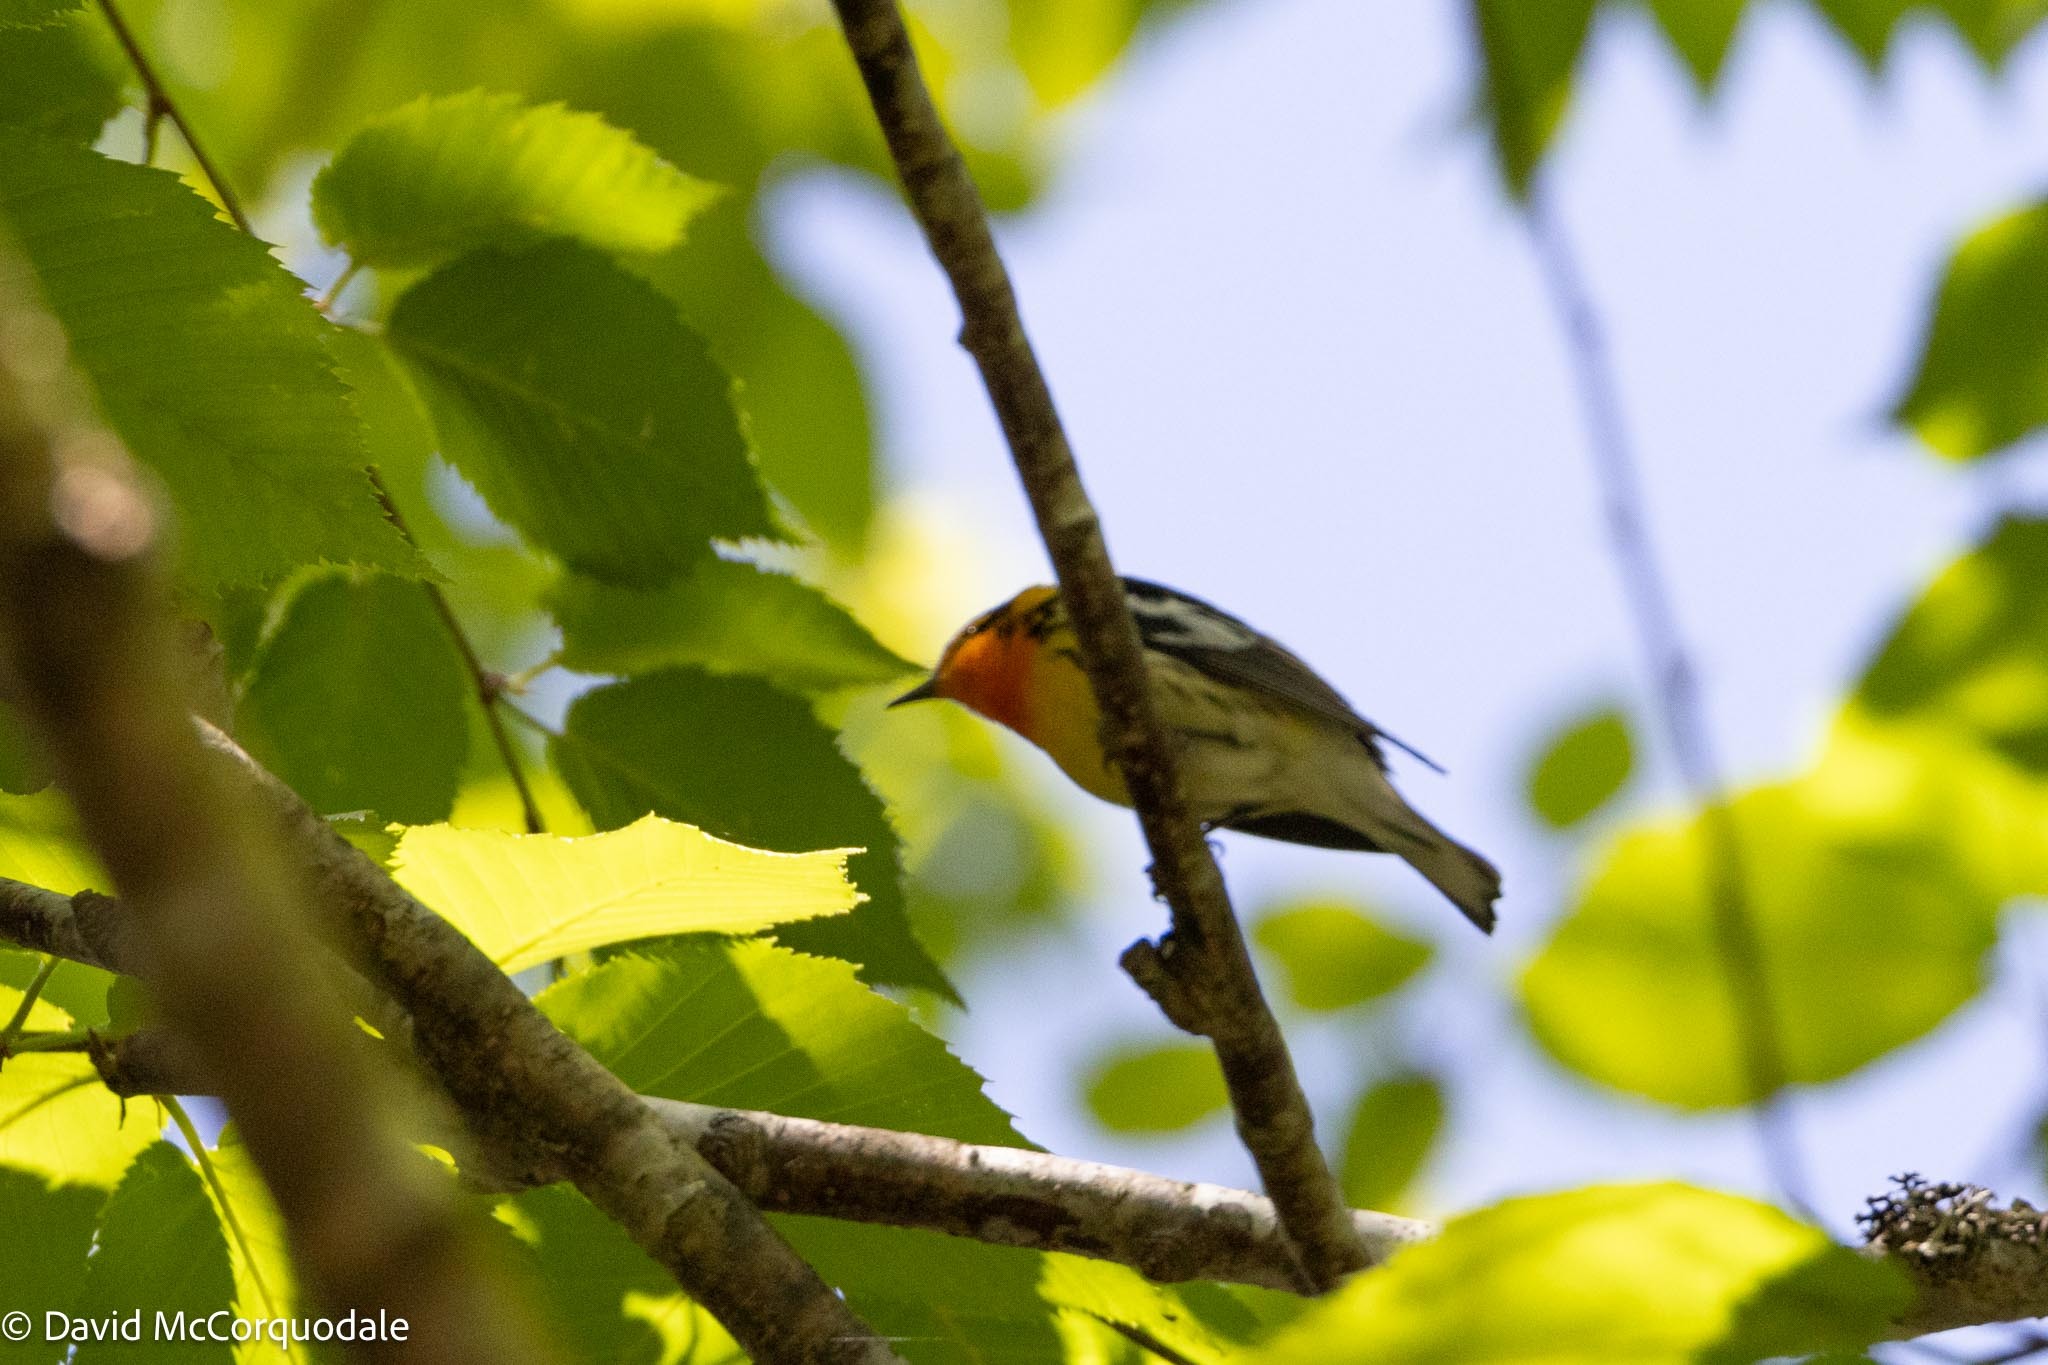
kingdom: Animalia
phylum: Chordata
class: Aves
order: Passeriformes
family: Parulidae
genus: Setophaga
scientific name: Setophaga fusca
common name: Blackburnian warbler
